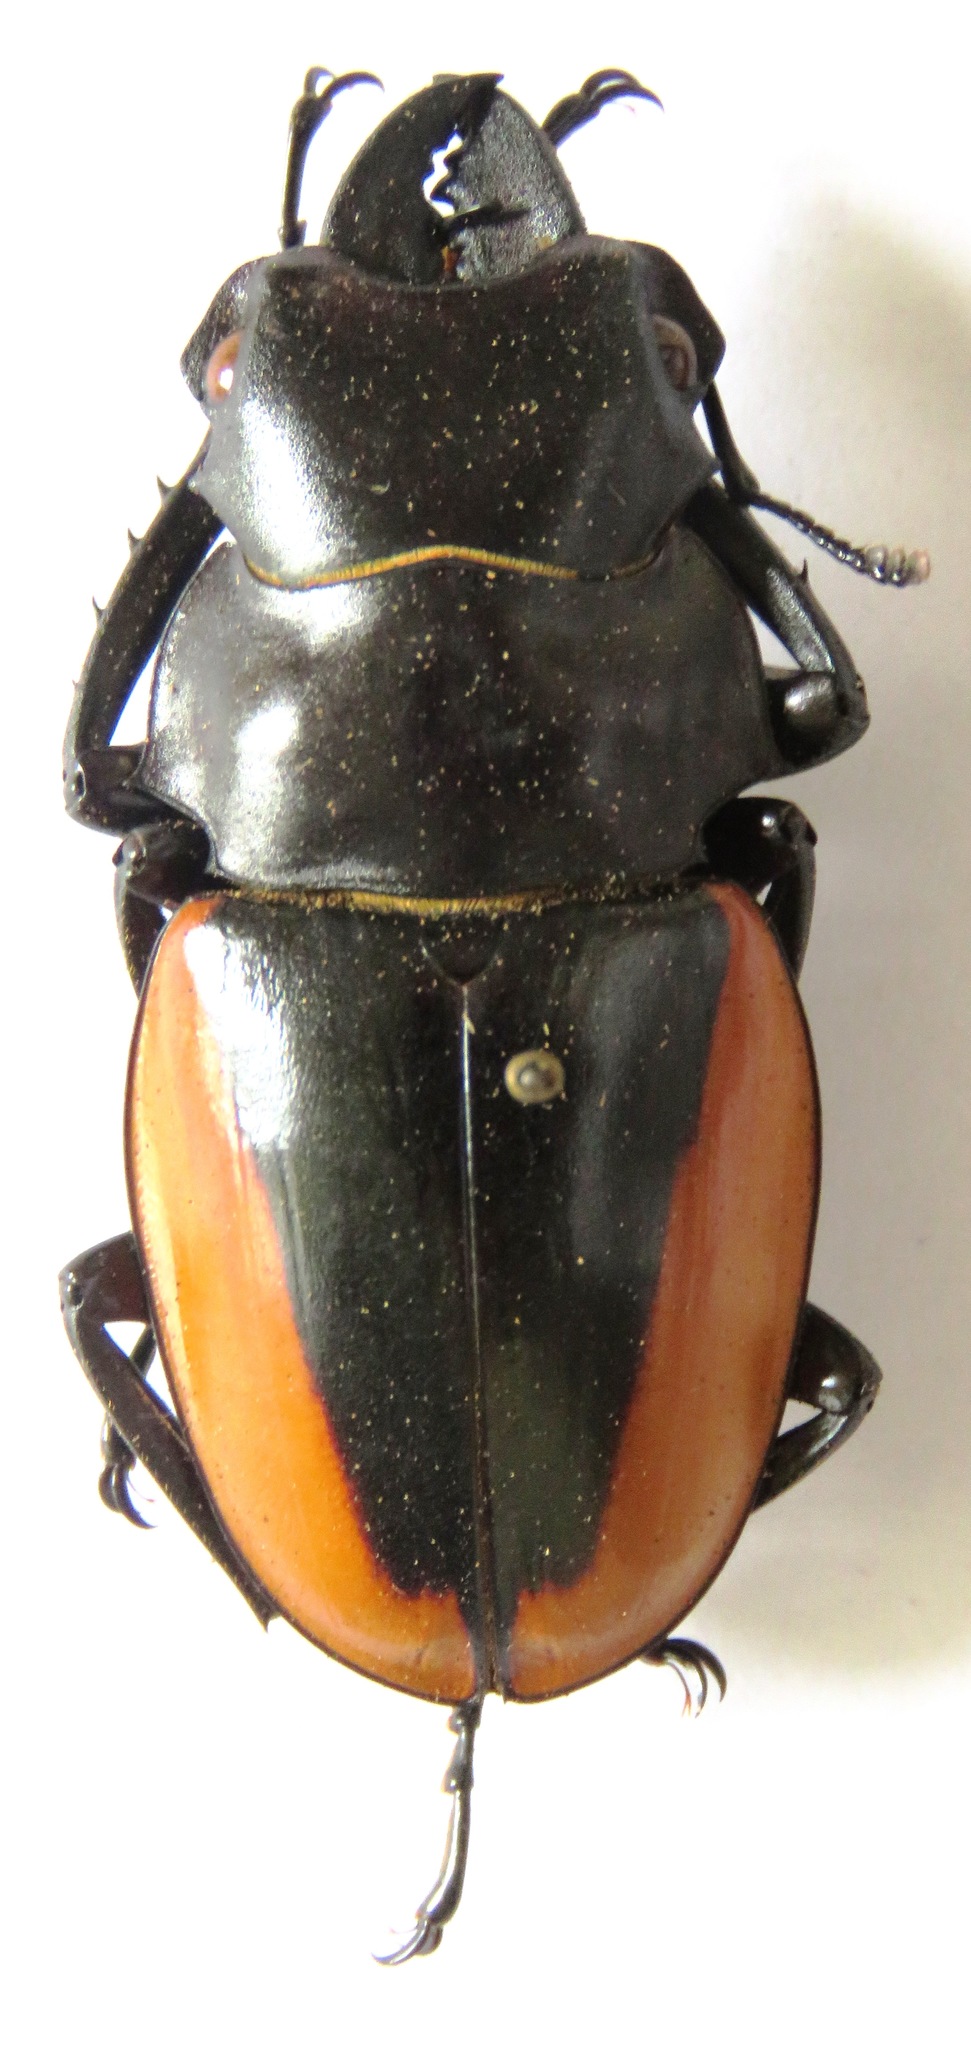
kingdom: Animalia
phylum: Arthropoda
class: Insecta
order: Coleoptera
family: Lucanidae
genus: Odontolabis
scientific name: Odontolabis cuvera
